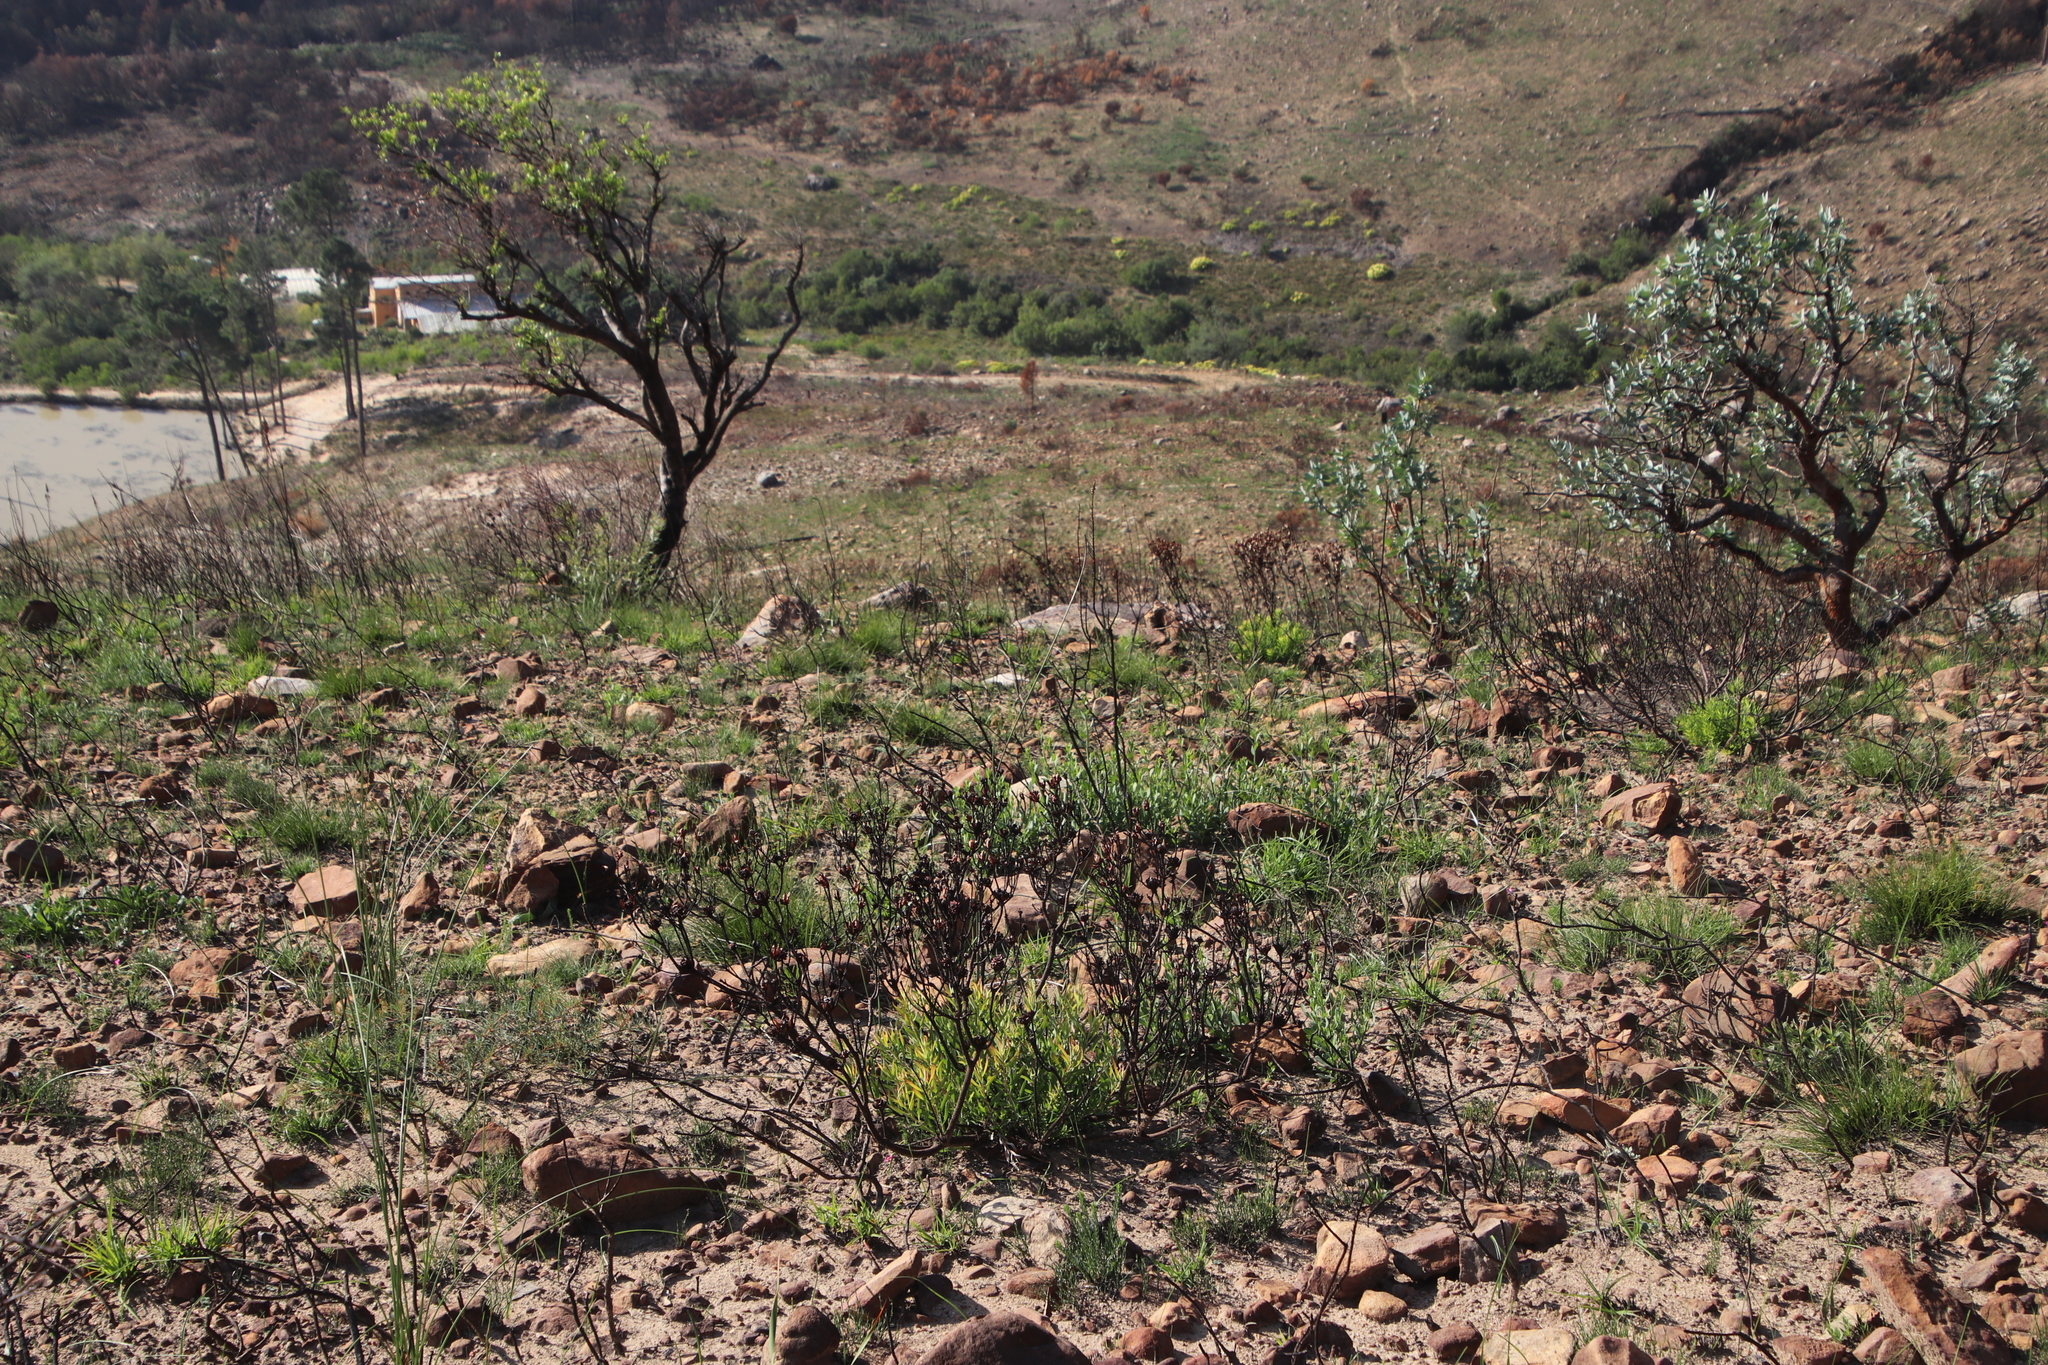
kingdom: Plantae
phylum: Tracheophyta
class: Magnoliopsida
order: Proteales
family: Proteaceae
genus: Leucadendron
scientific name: Leucadendron salignum
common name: Common sunshine conebush
